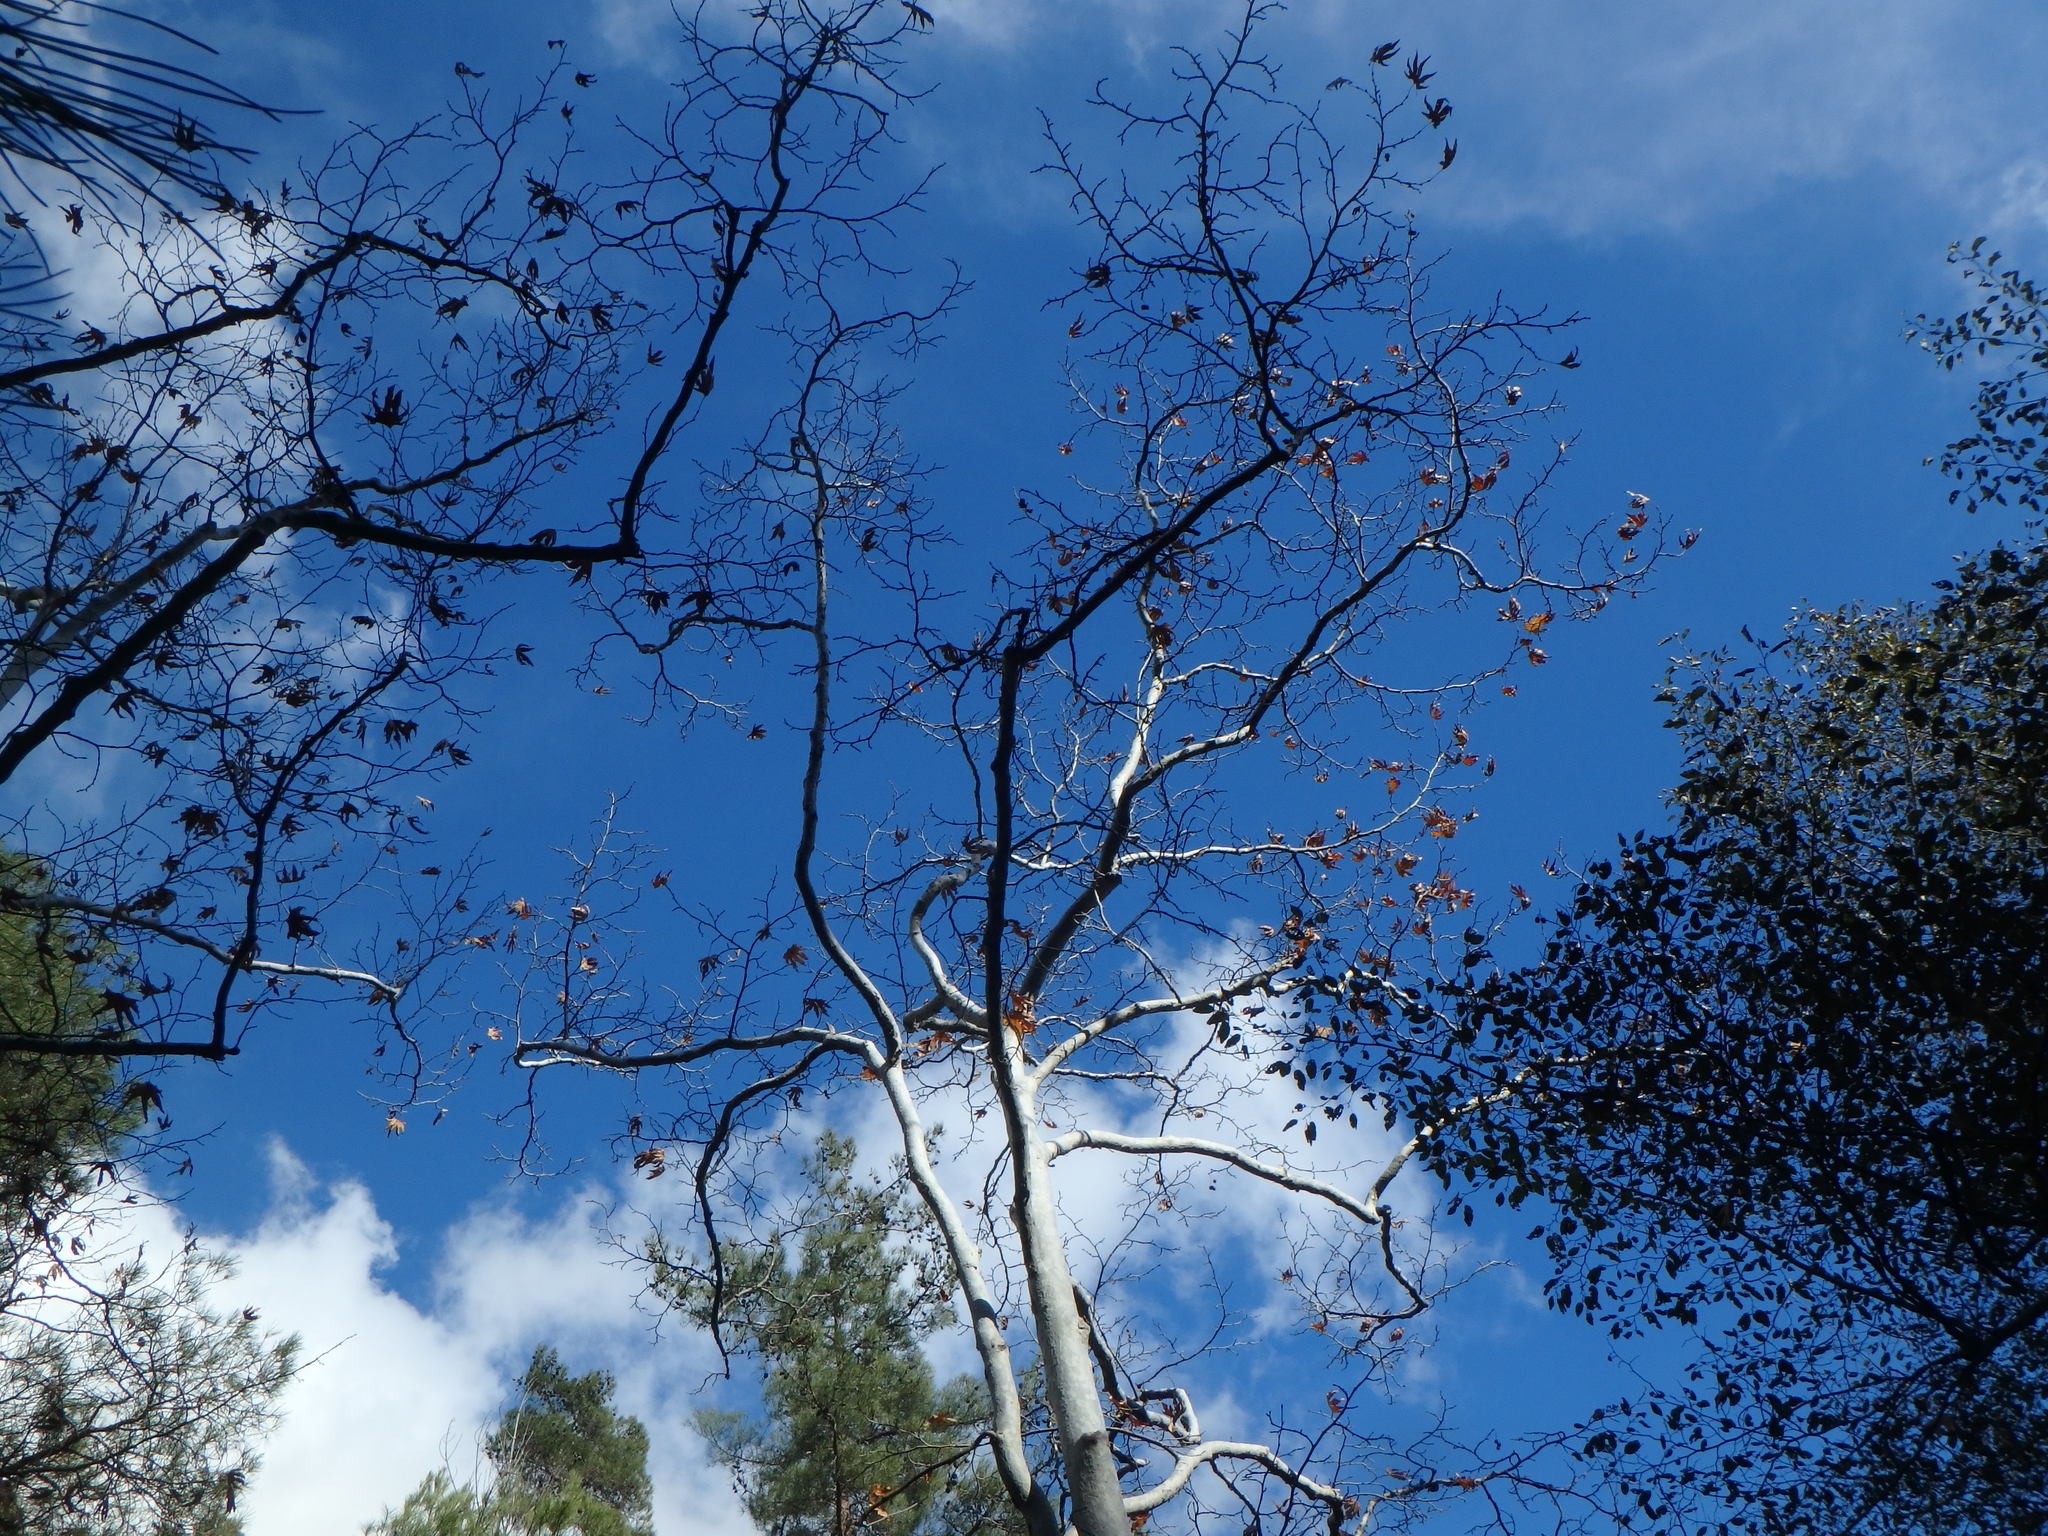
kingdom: Plantae
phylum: Tracheophyta
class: Magnoliopsida
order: Proteales
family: Platanaceae
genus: Platanus
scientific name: Platanus orientalis
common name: Oriental plane
